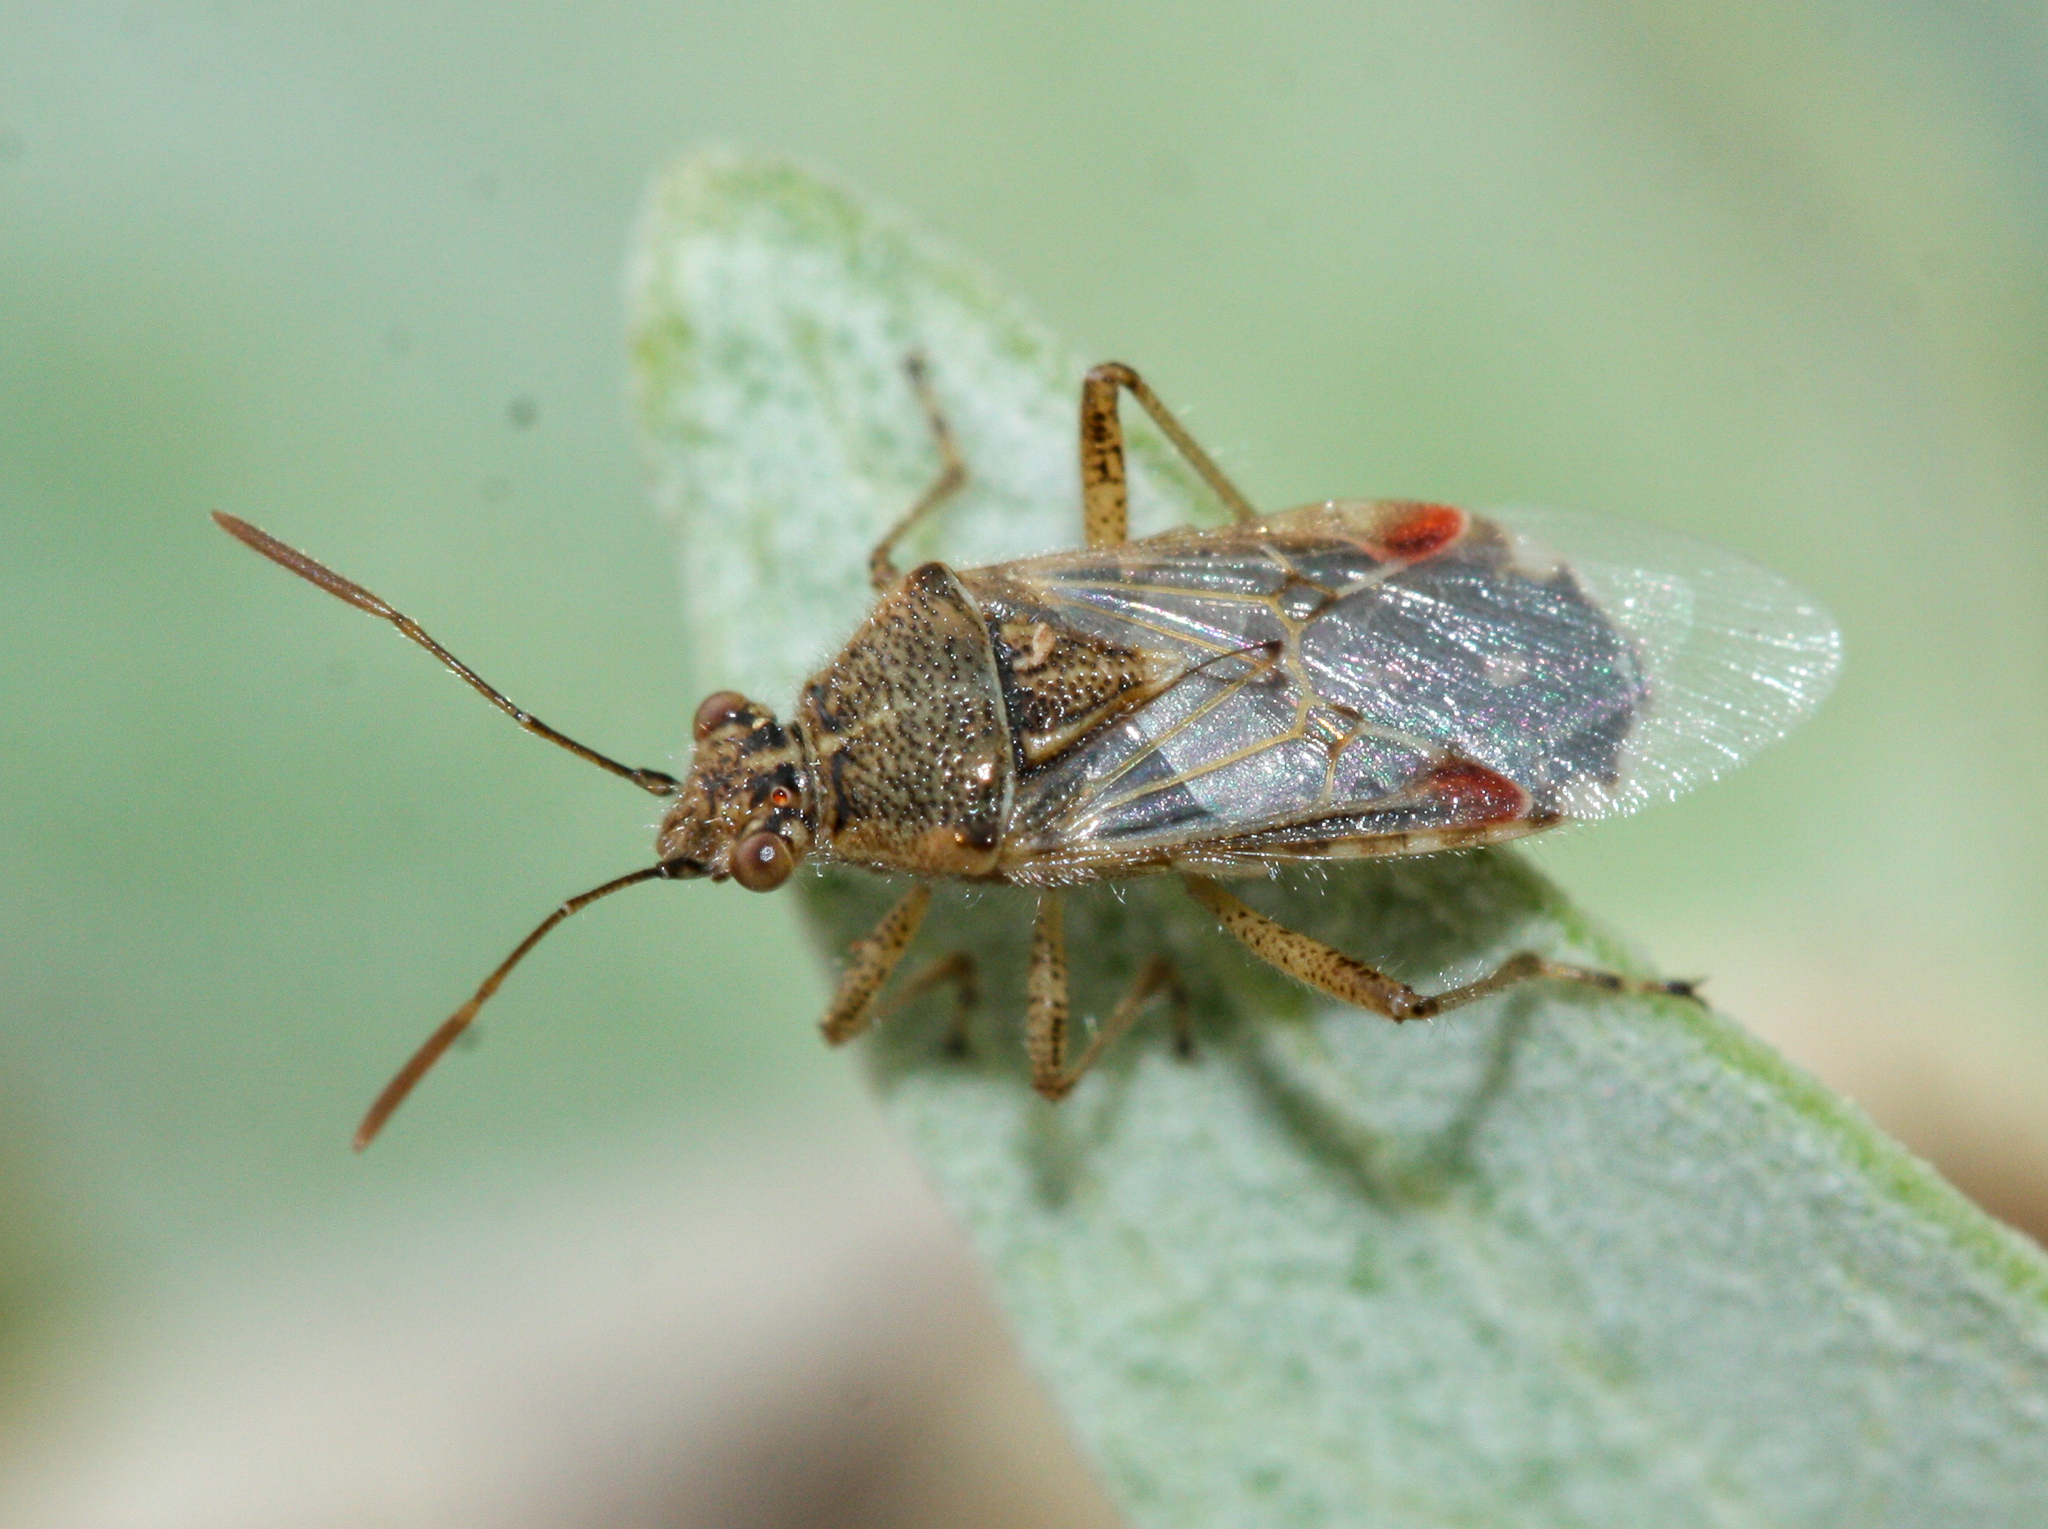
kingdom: Animalia
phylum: Arthropoda
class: Insecta
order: Hemiptera
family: Rhopalidae
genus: Liorhyssus
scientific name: Liorhyssus hyalinus
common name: Scentless plant bug
